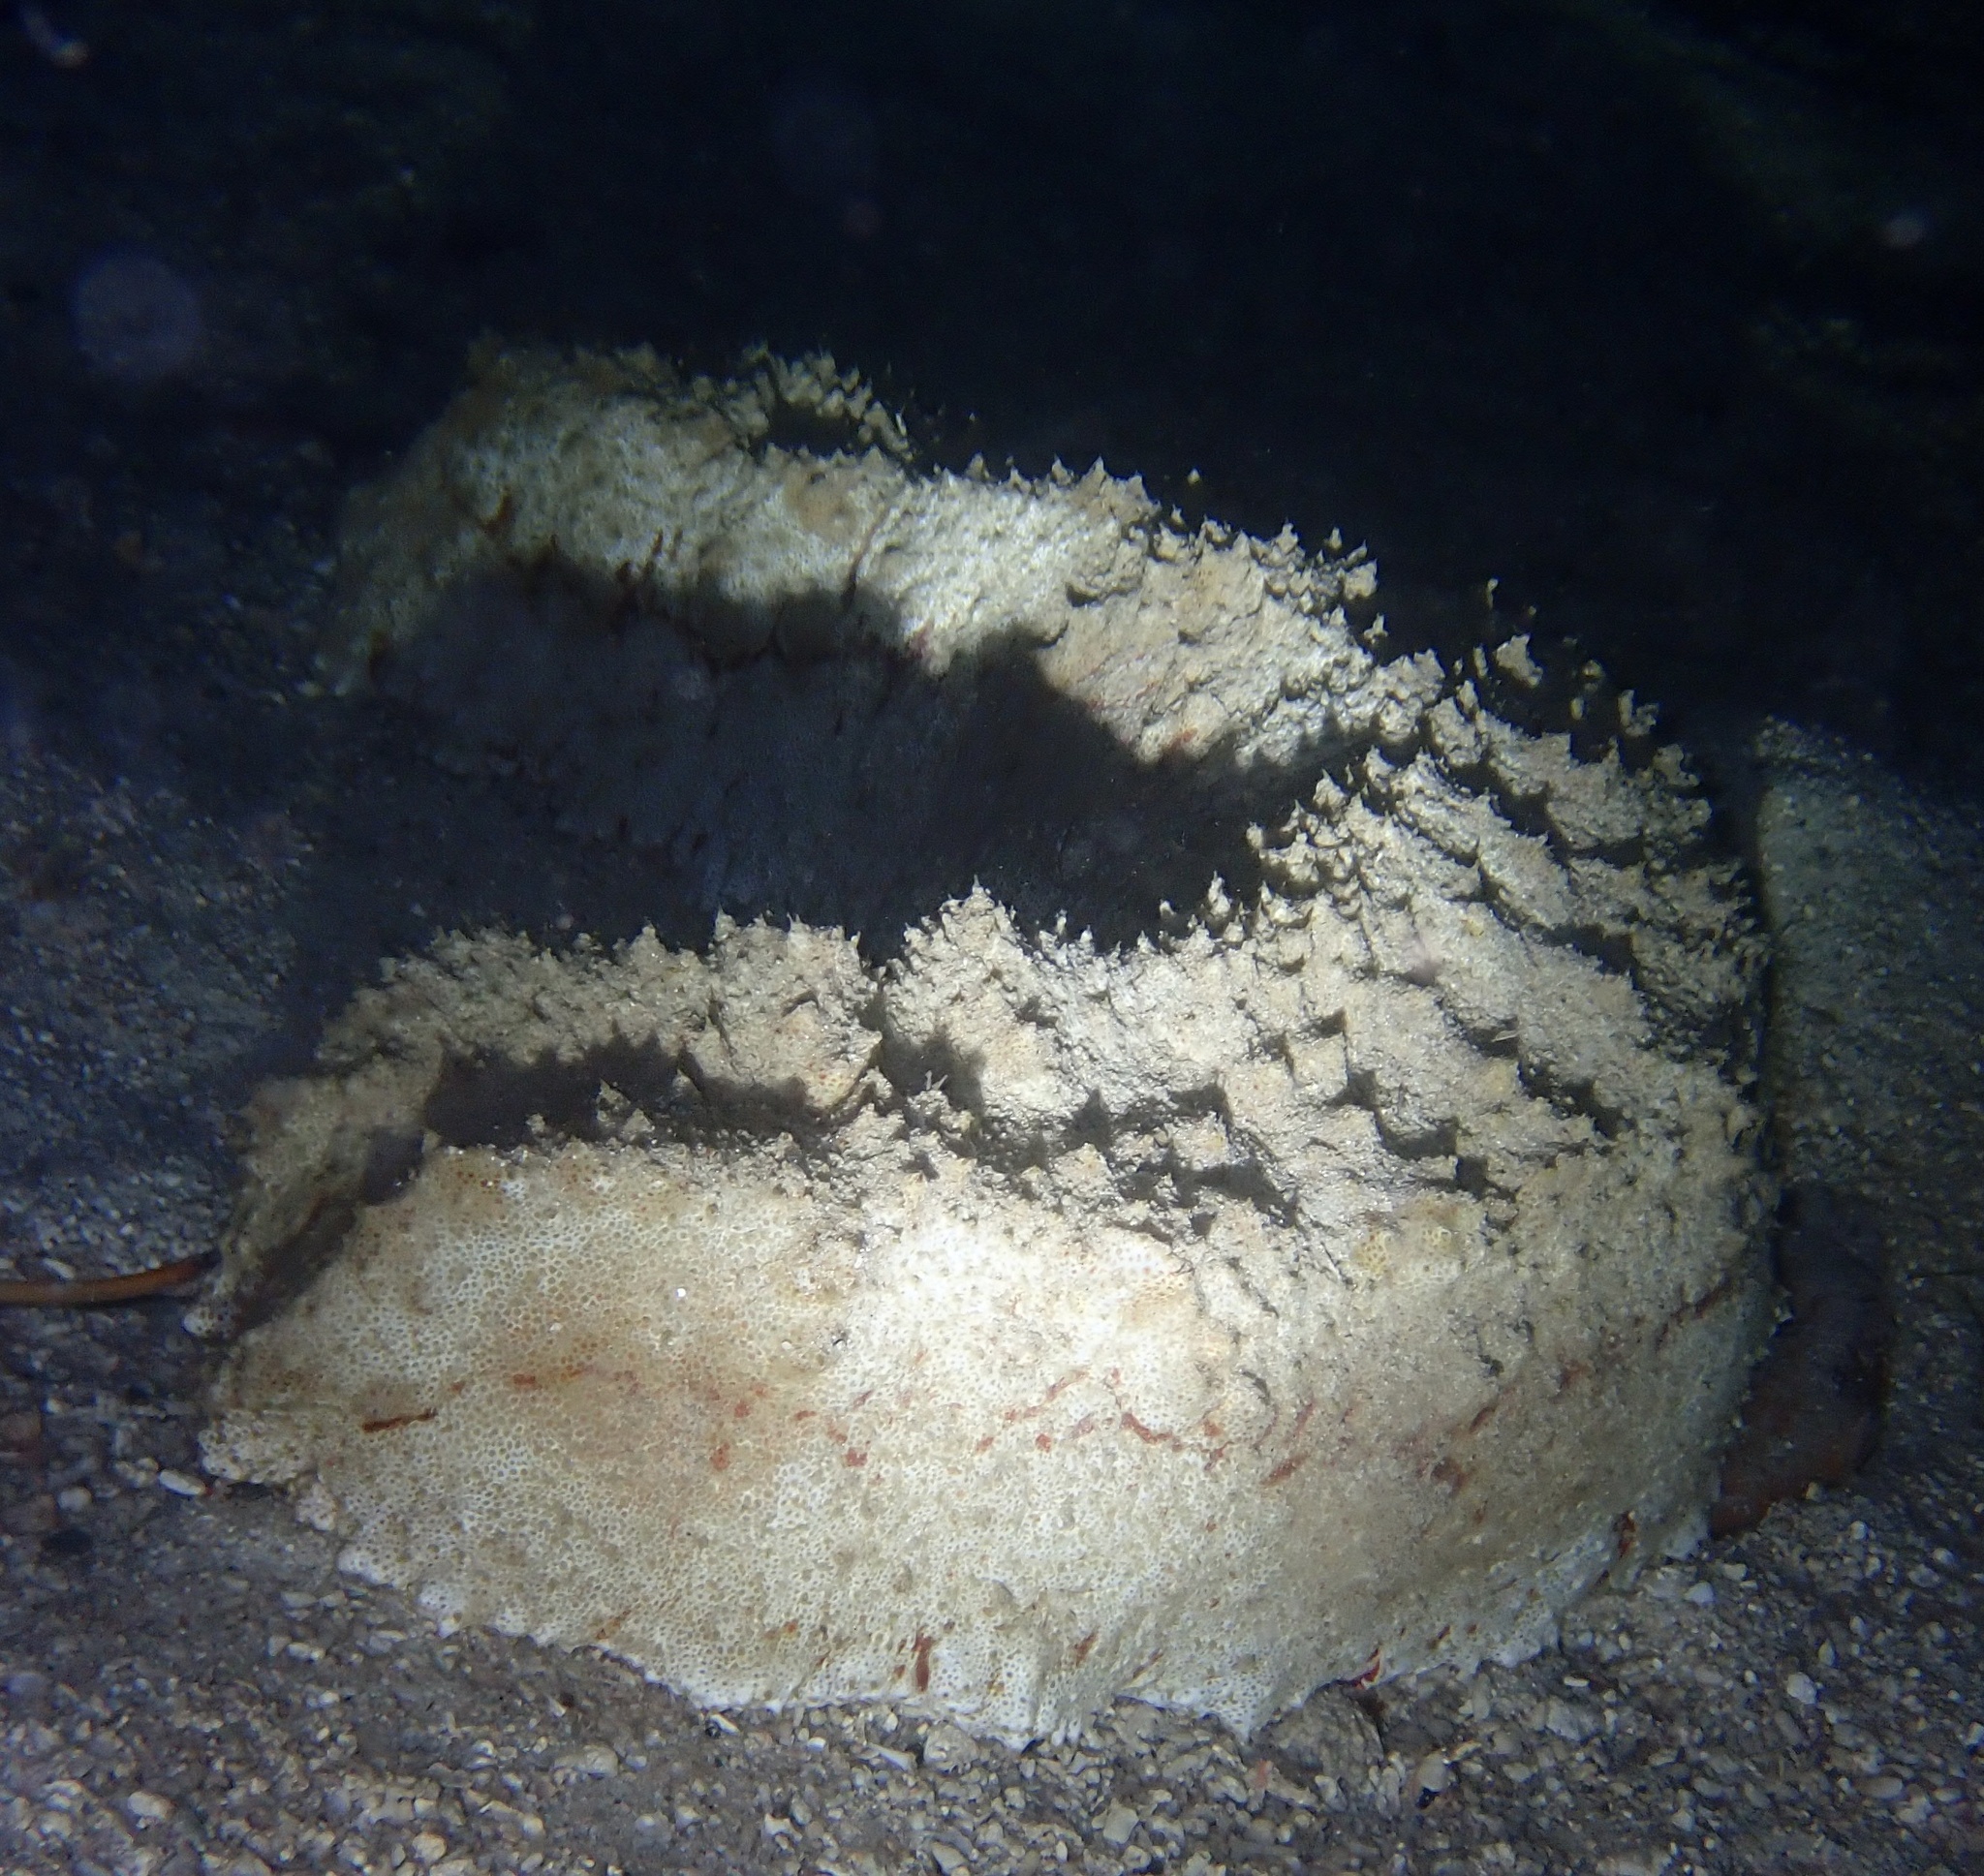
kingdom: Animalia
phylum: Echinodermata
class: Holothuroidea
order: Synallactida
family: Stichopodidae
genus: Thelenota
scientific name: Thelenota anax
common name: Amberfish
